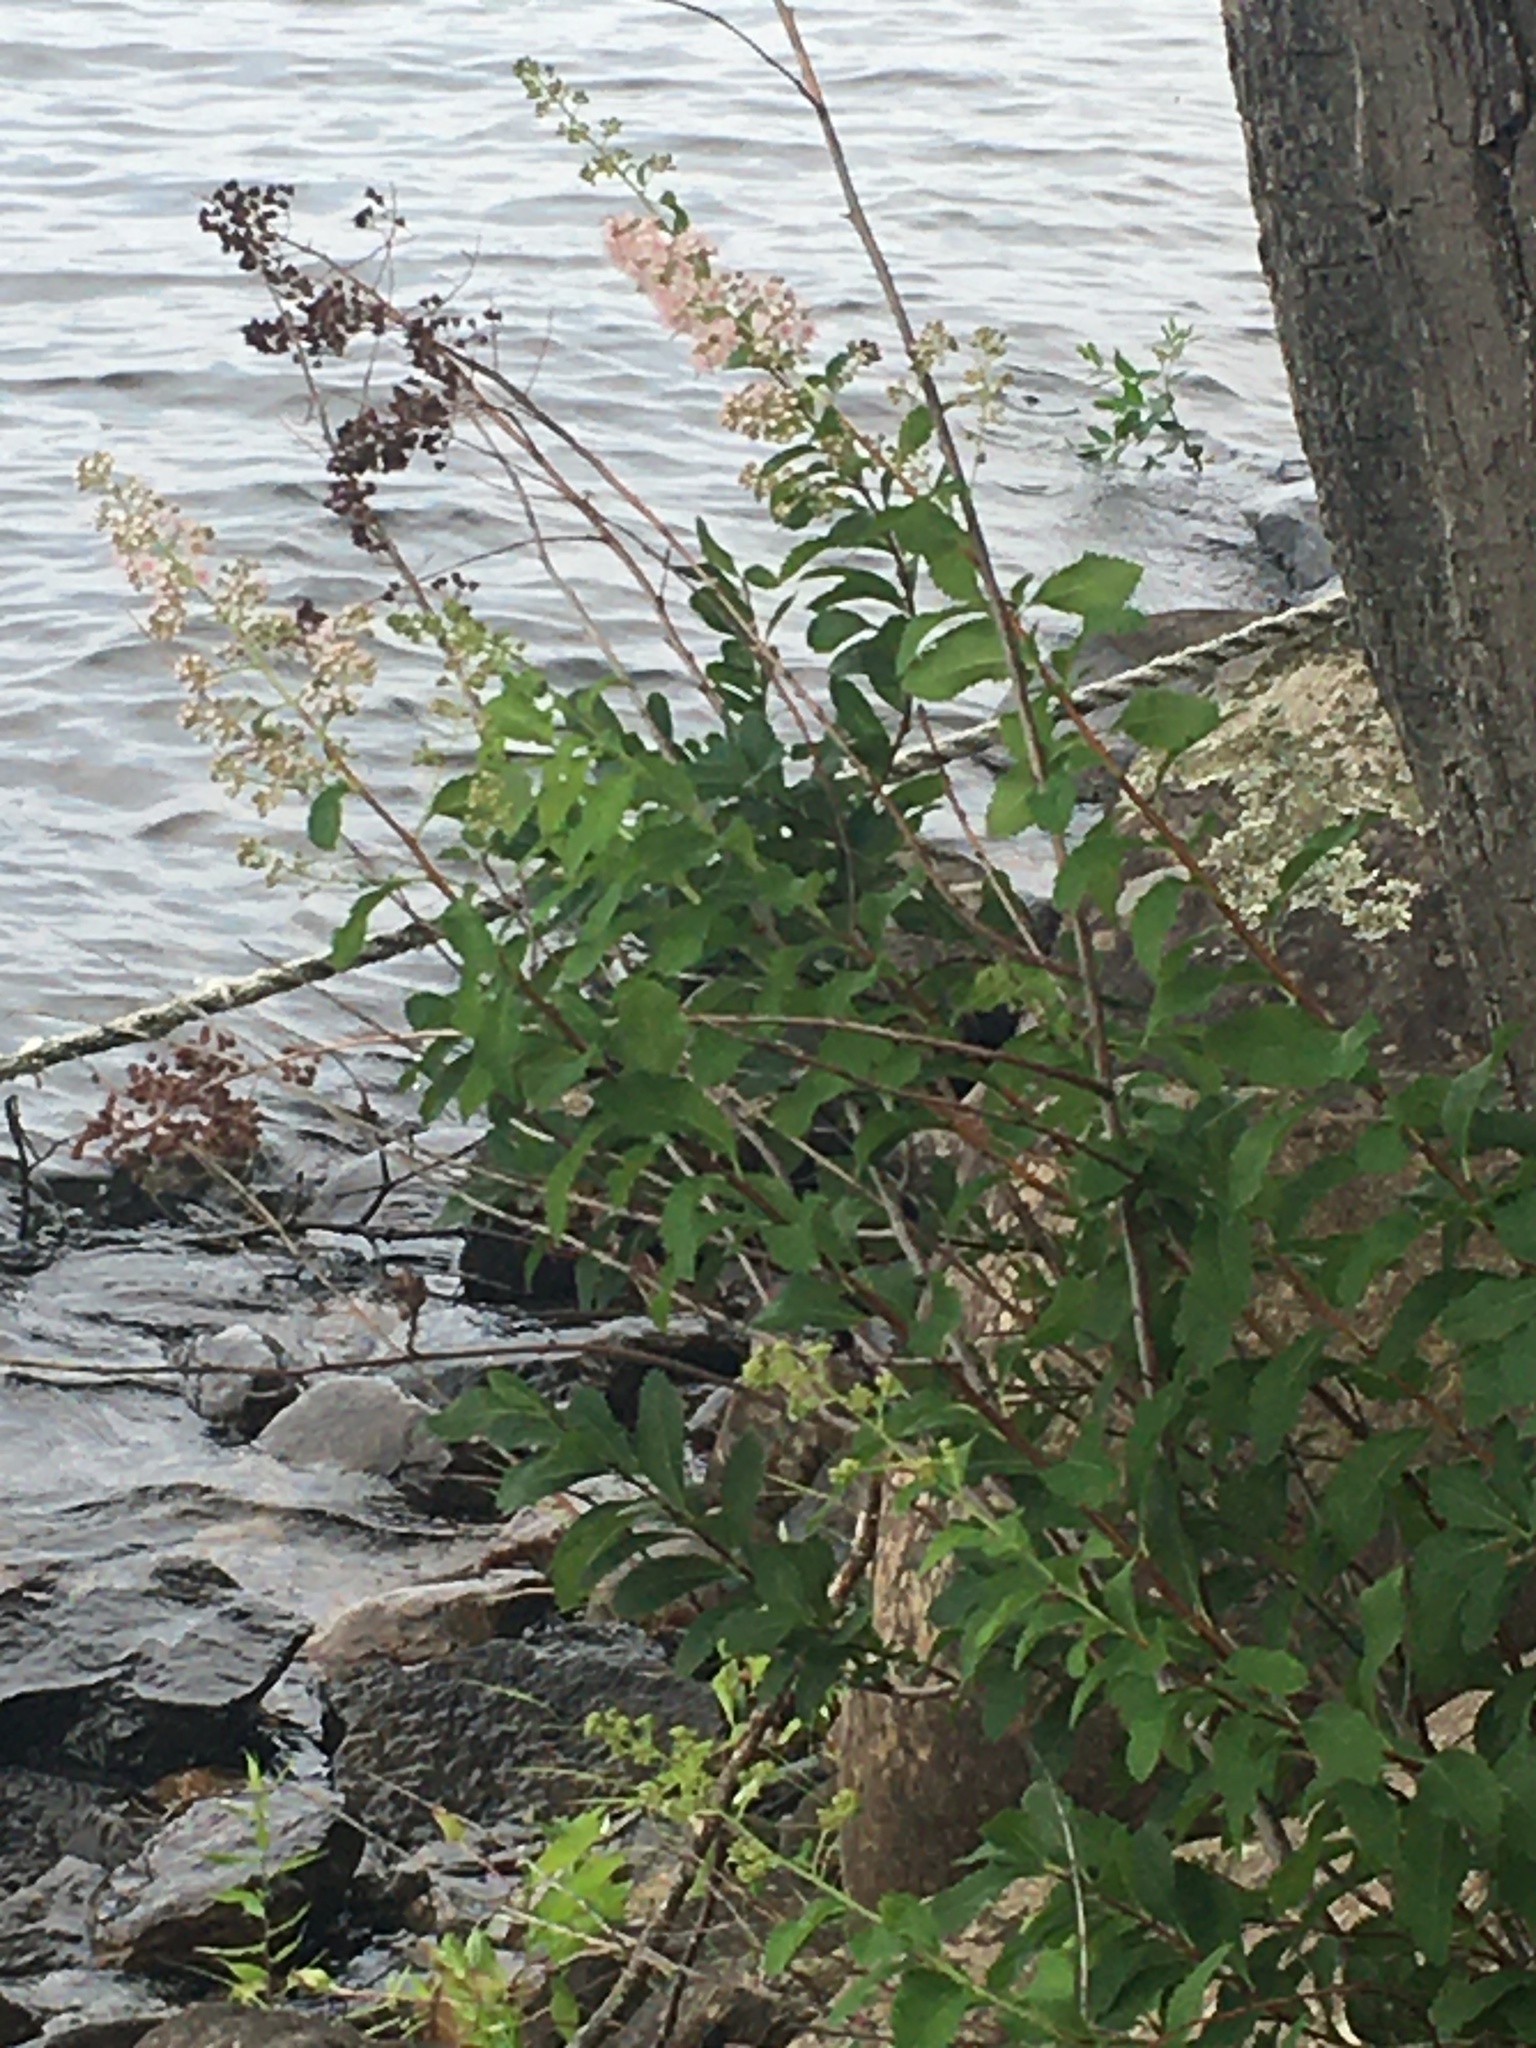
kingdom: Plantae
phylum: Tracheophyta
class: Magnoliopsida
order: Rosales
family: Rosaceae
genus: Spiraea
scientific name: Spiraea alba
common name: Pale bridewort
